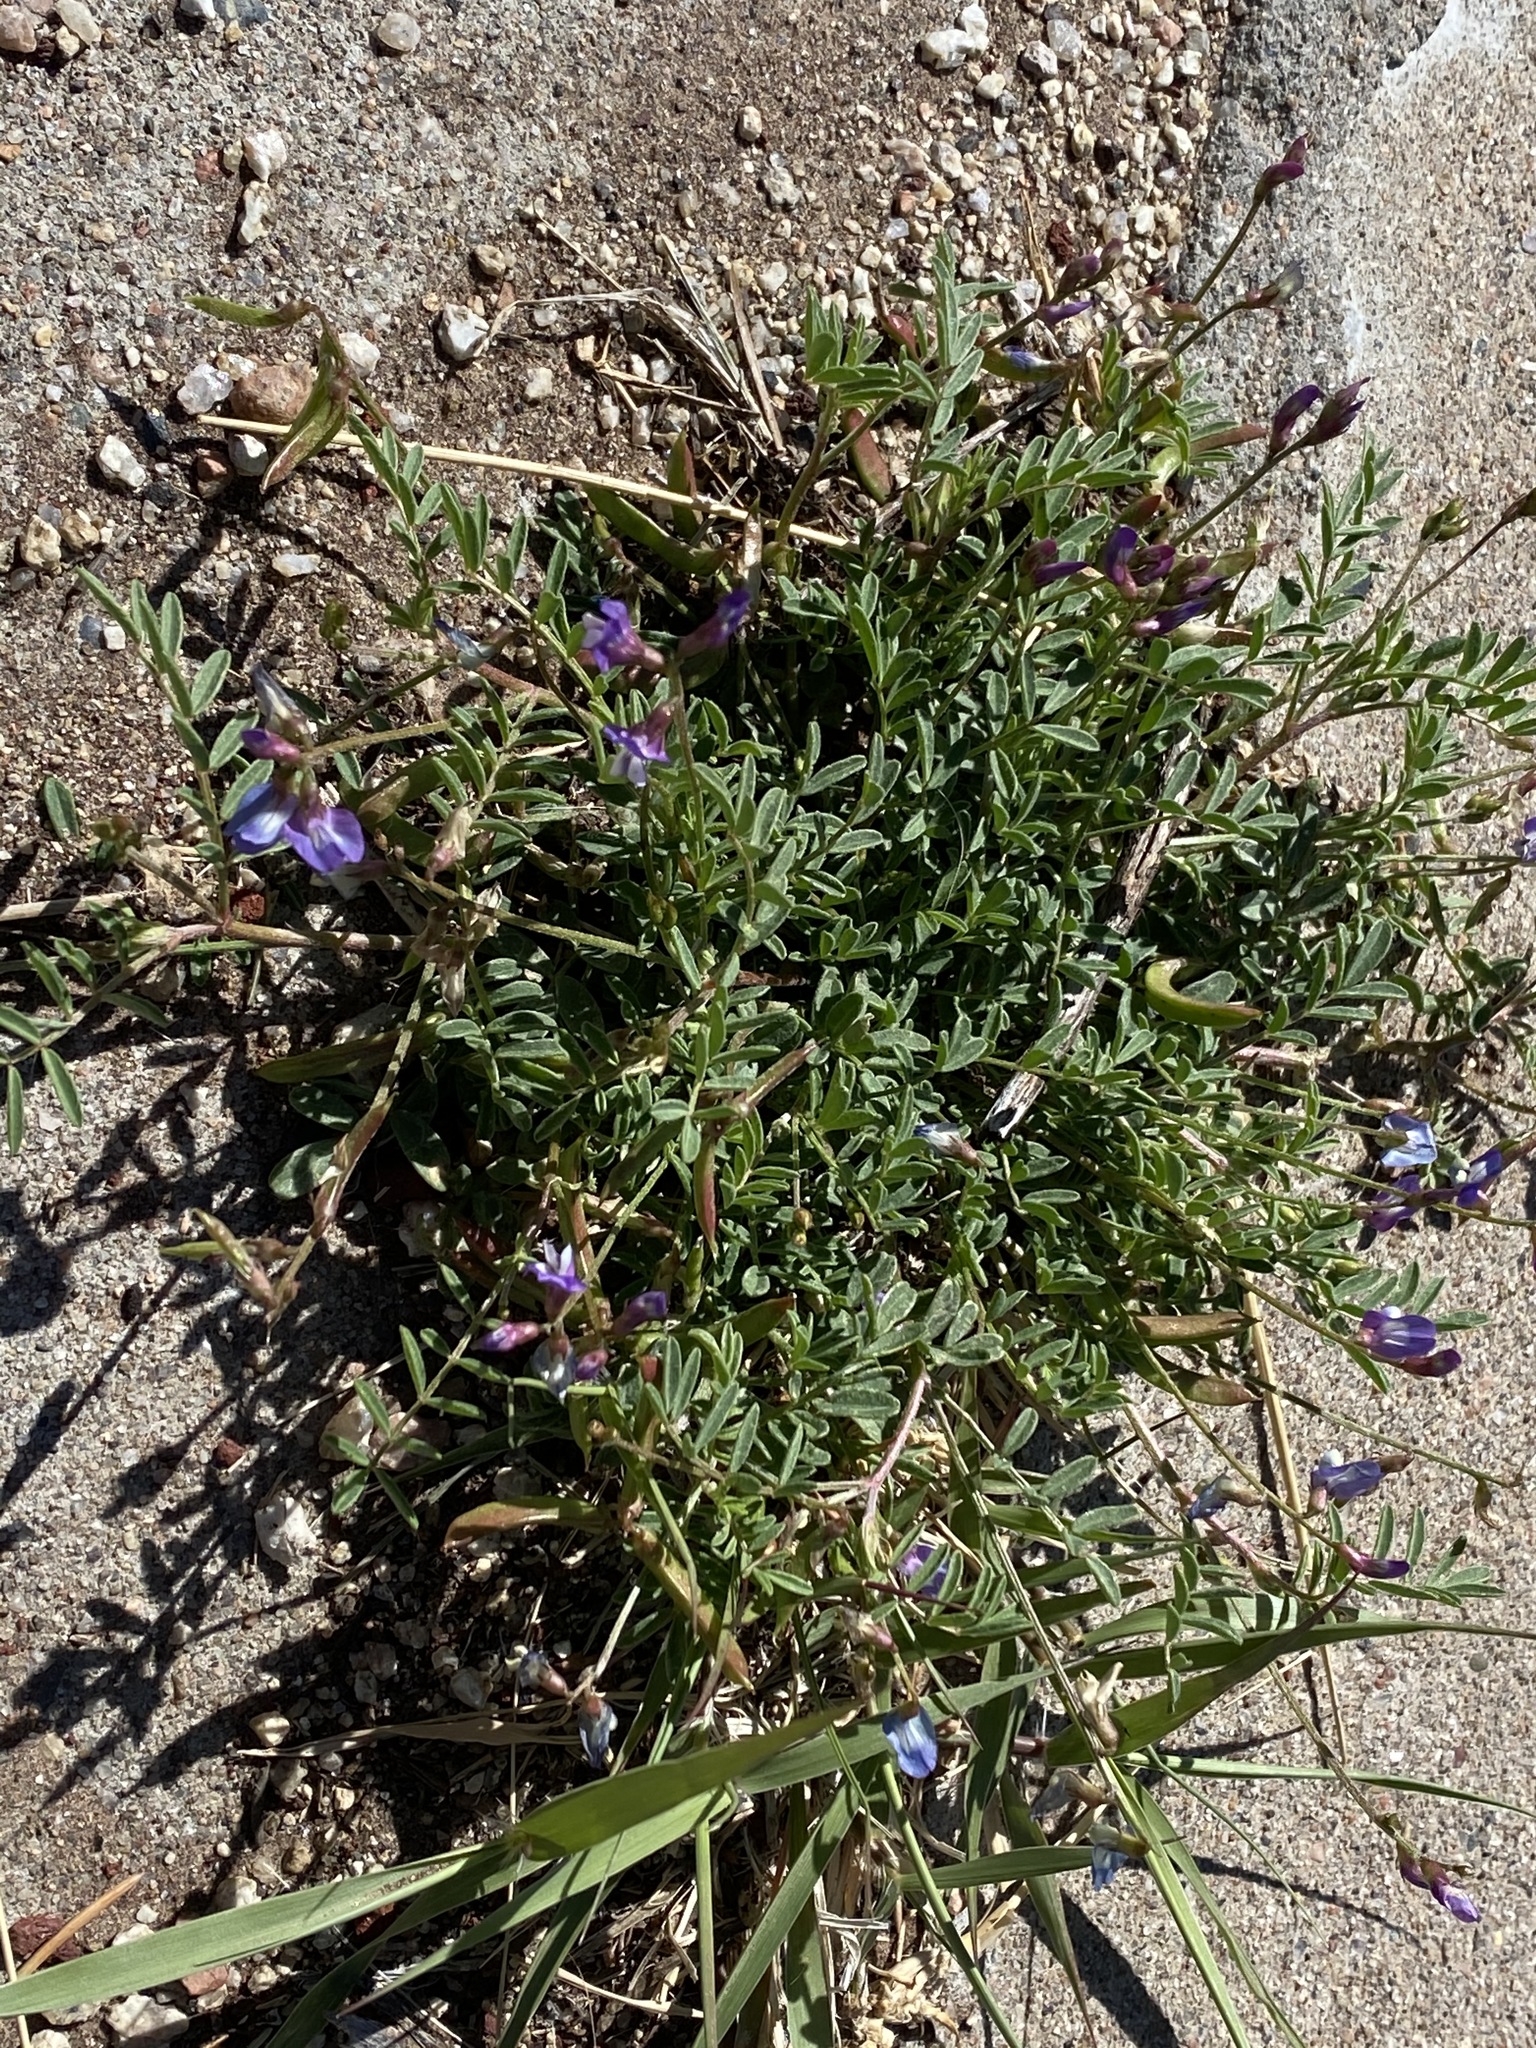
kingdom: Plantae
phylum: Tracheophyta
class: Magnoliopsida
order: Fabales
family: Fabaceae
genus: Astragalus
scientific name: Astragalus nuttallianus
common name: Smallflowered milkvetch
